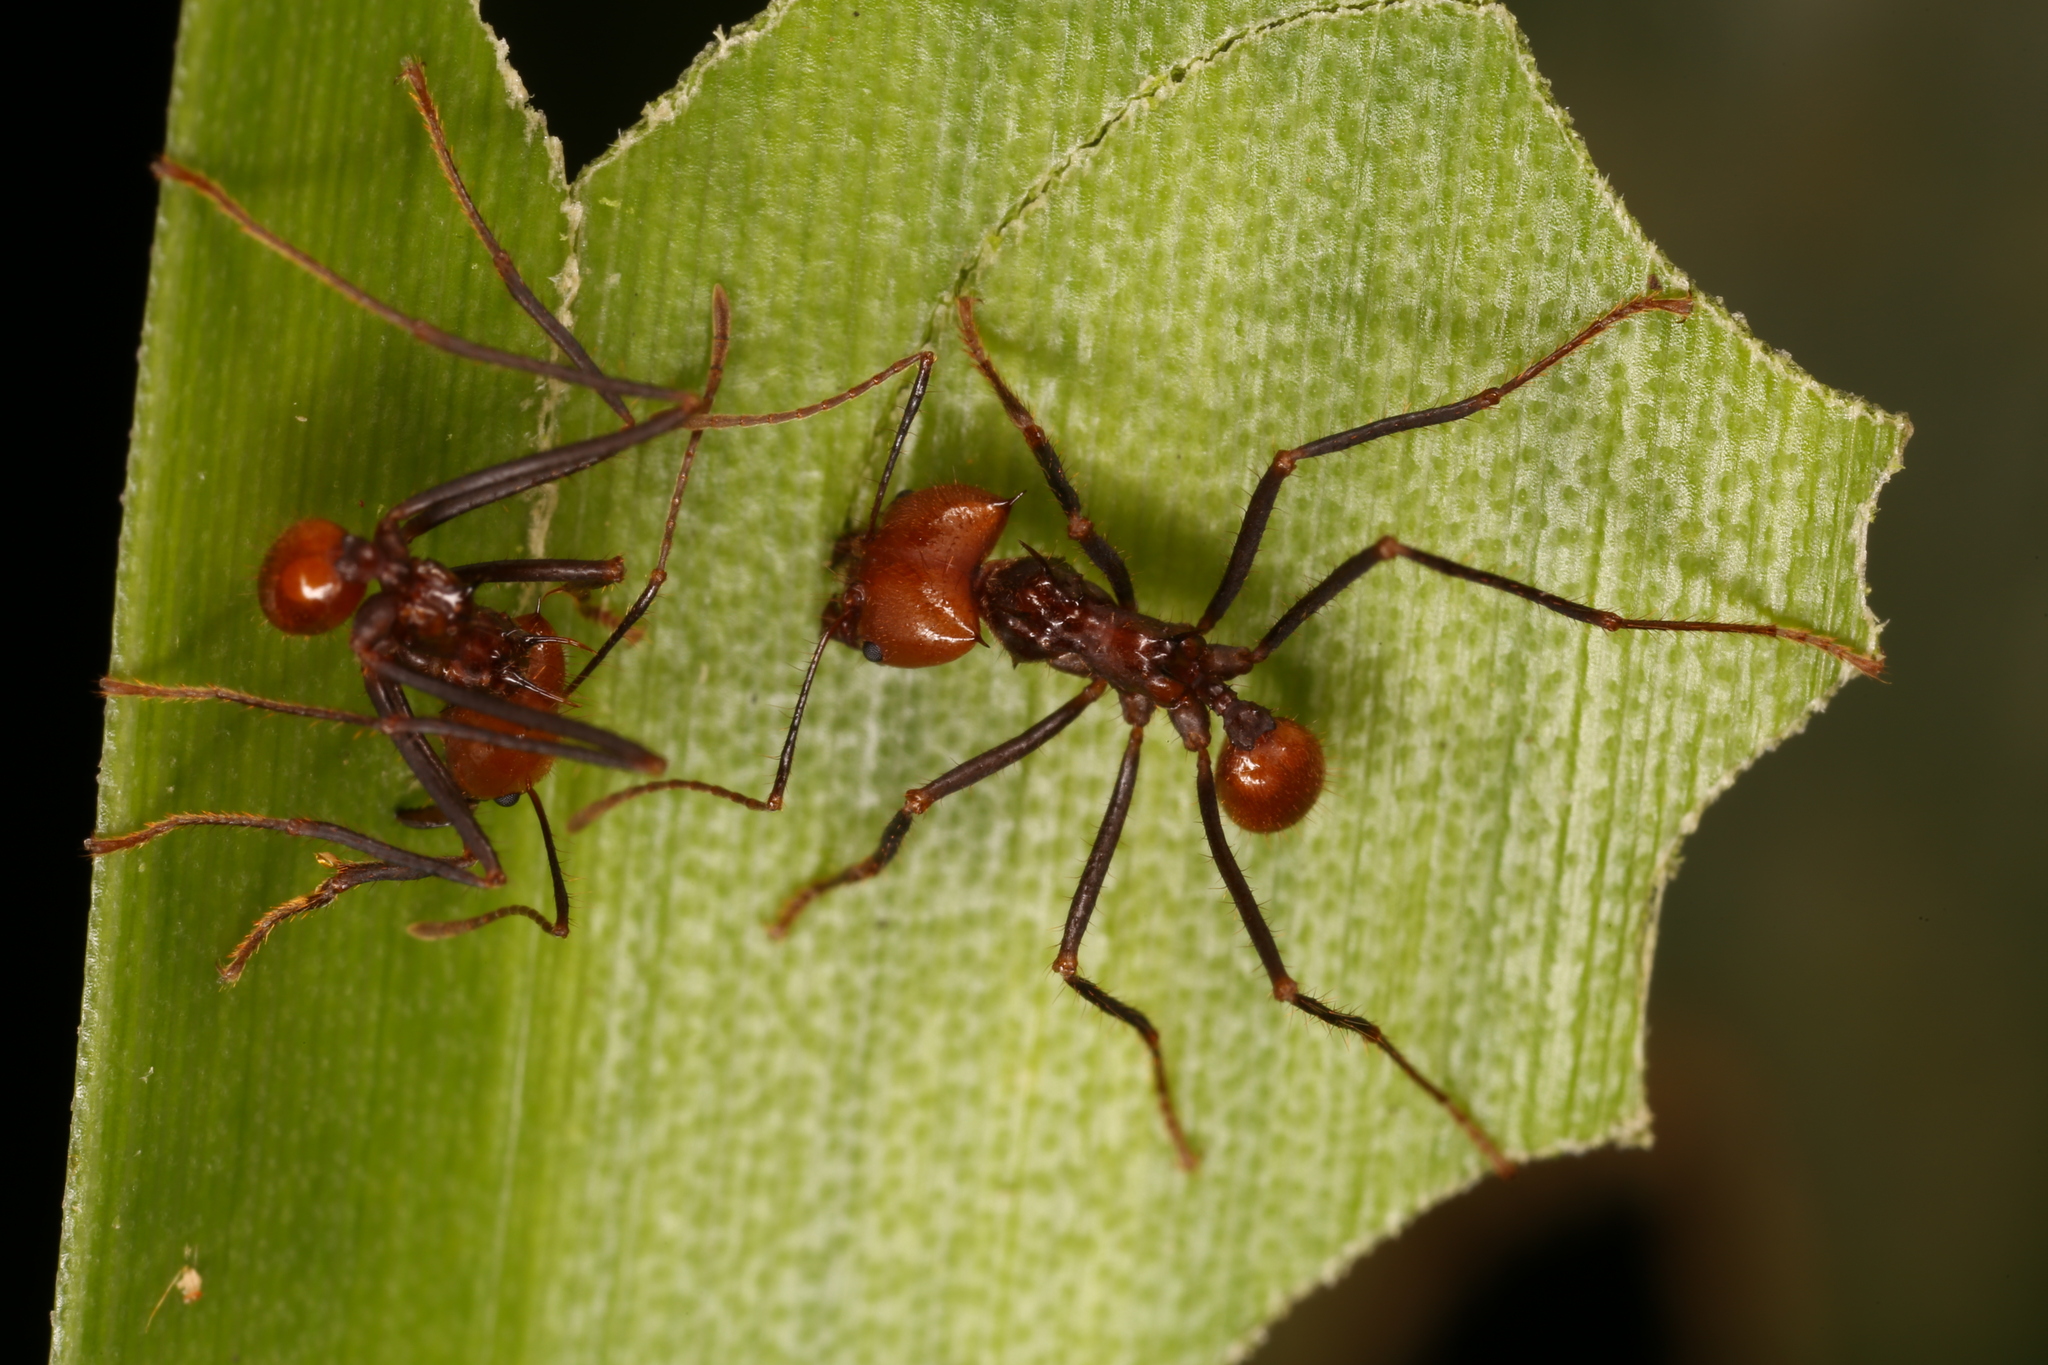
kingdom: Animalia
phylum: Arthropoda
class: Insecta
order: Hymenoptera
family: Formicidae
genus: Atta
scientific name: Atta cephalotes
